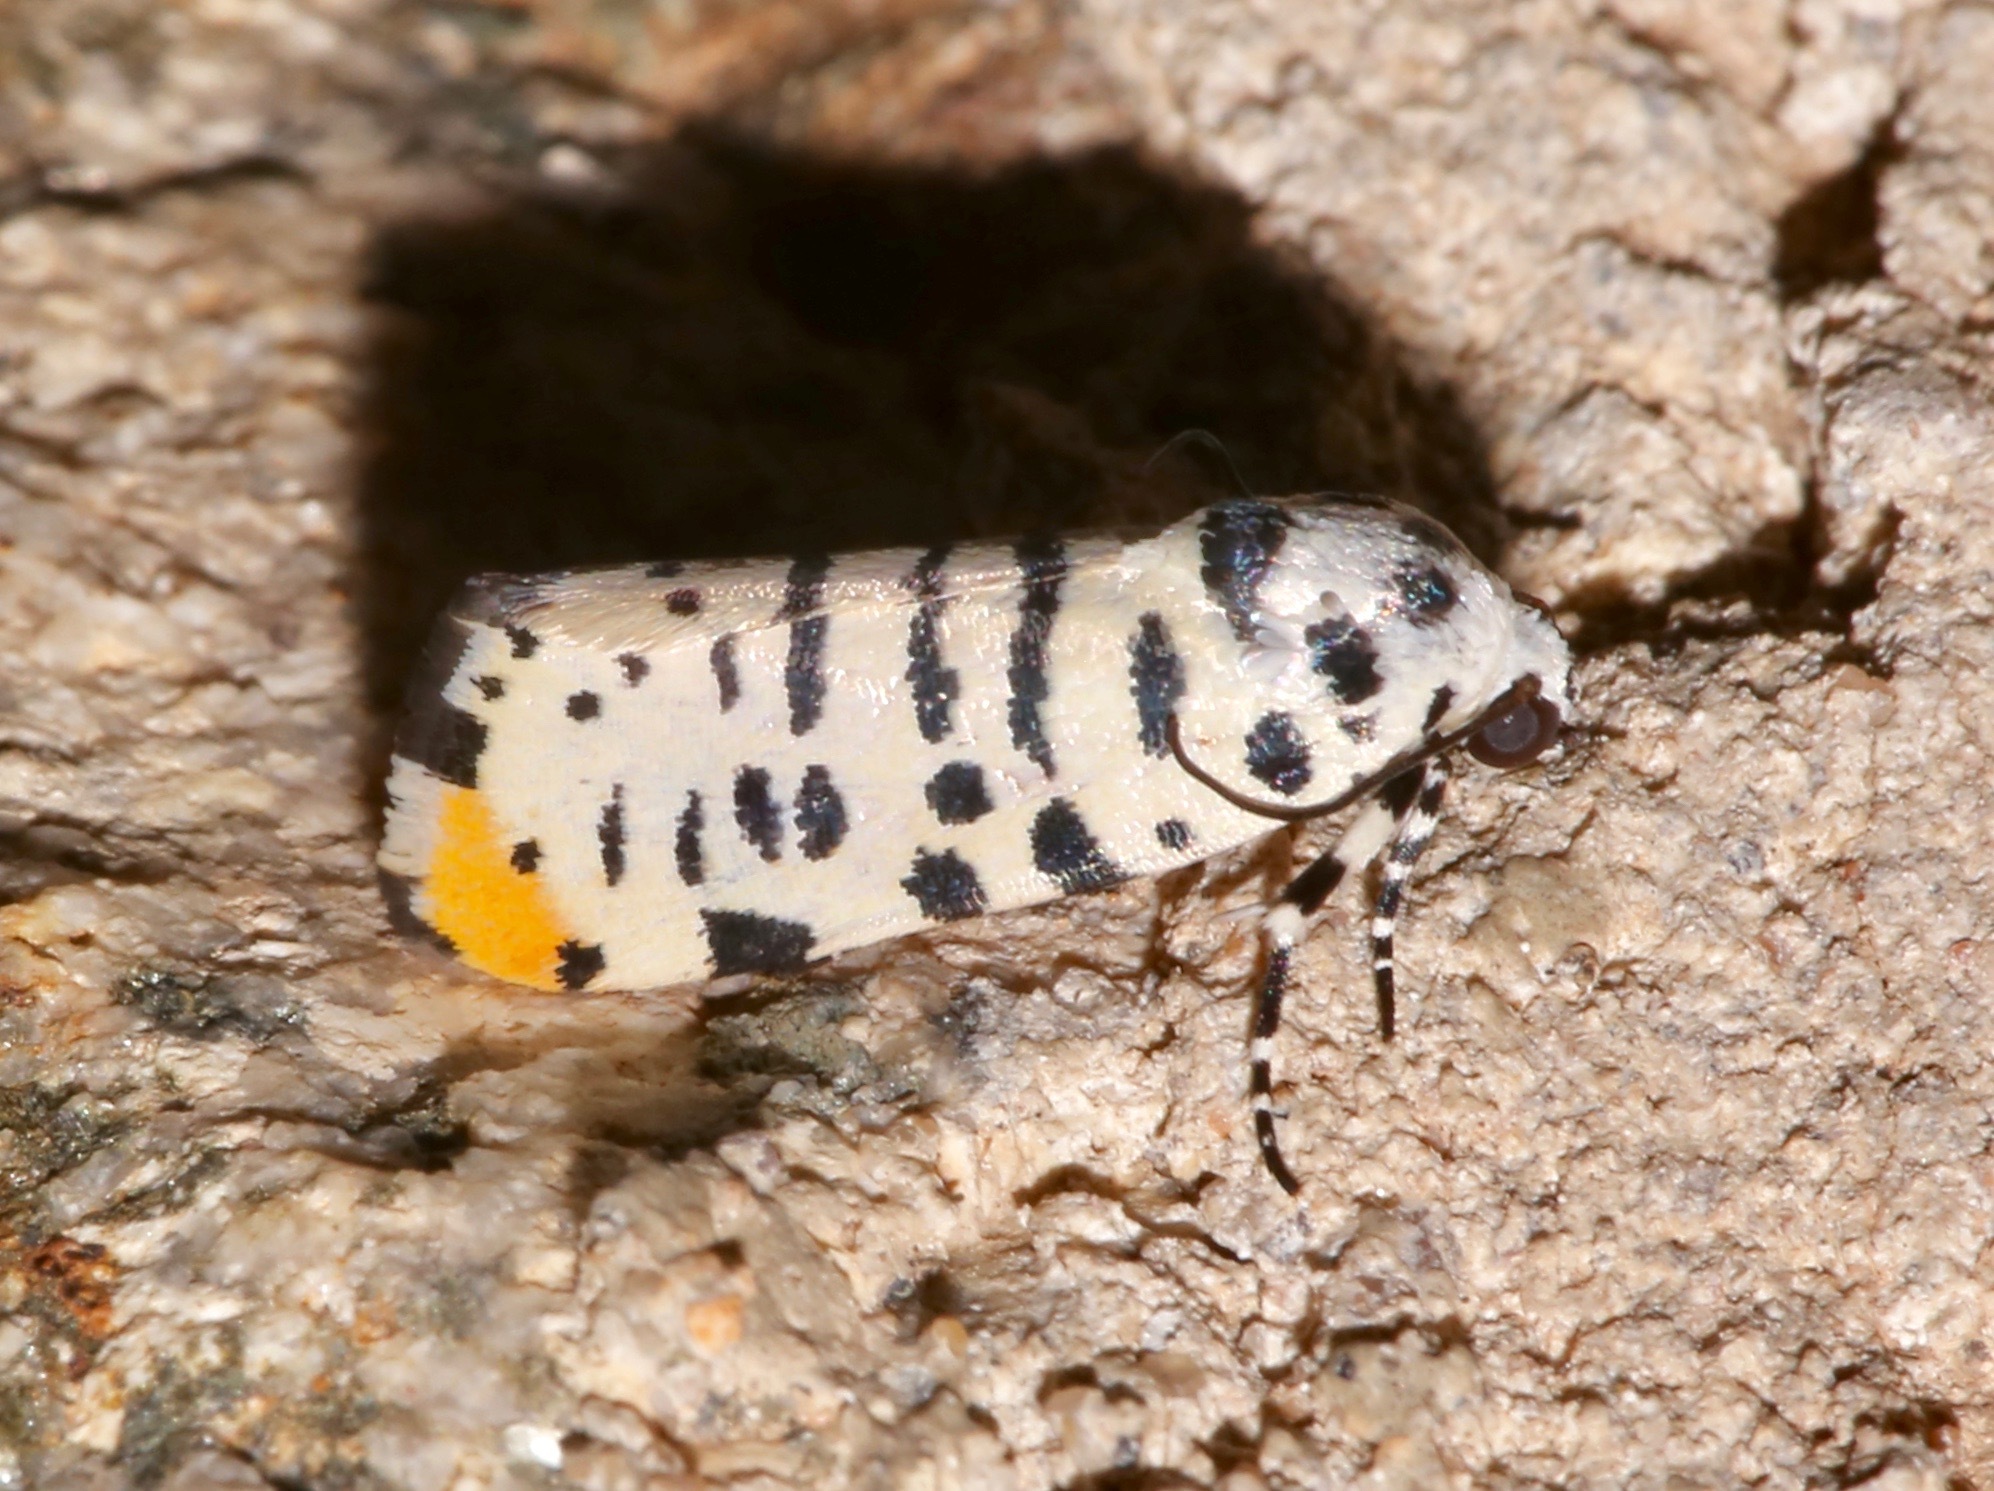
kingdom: Animalia
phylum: Arthropoda
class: Insecta
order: Lepidoptera
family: Noctuidae
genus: Acontia
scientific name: Acontia idella
